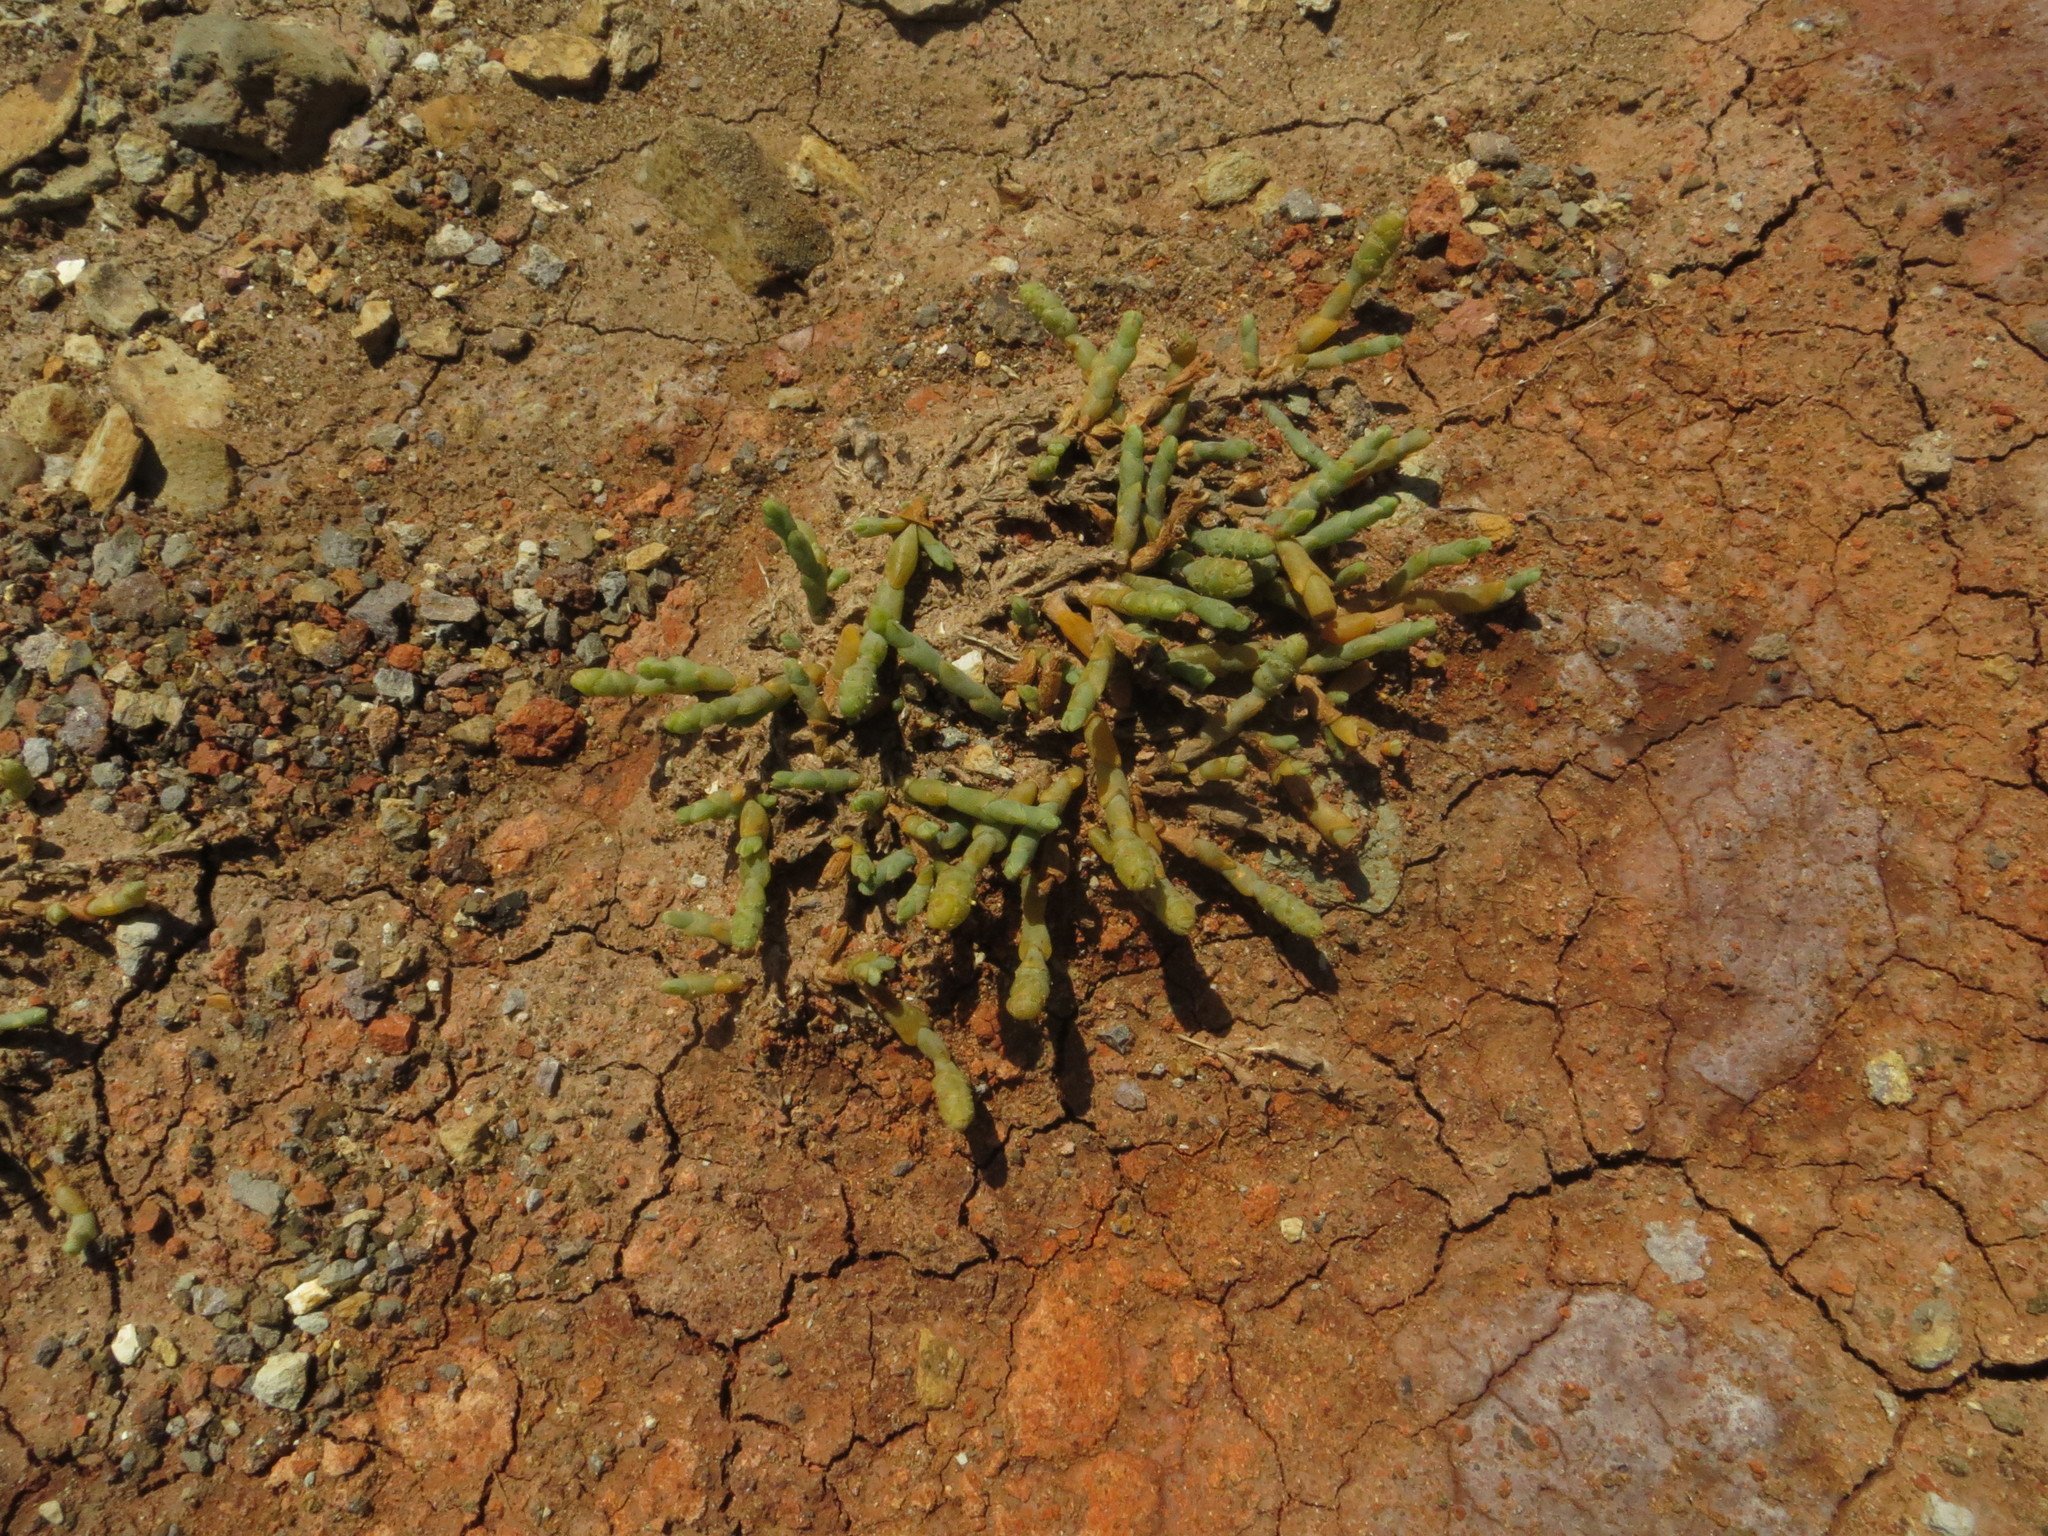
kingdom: Plantae
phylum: Tracheophyta
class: Magnoliopsida
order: Caryophyllales
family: Amaranthaceae
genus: Salicornia
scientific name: Salicornia quinqueflora
